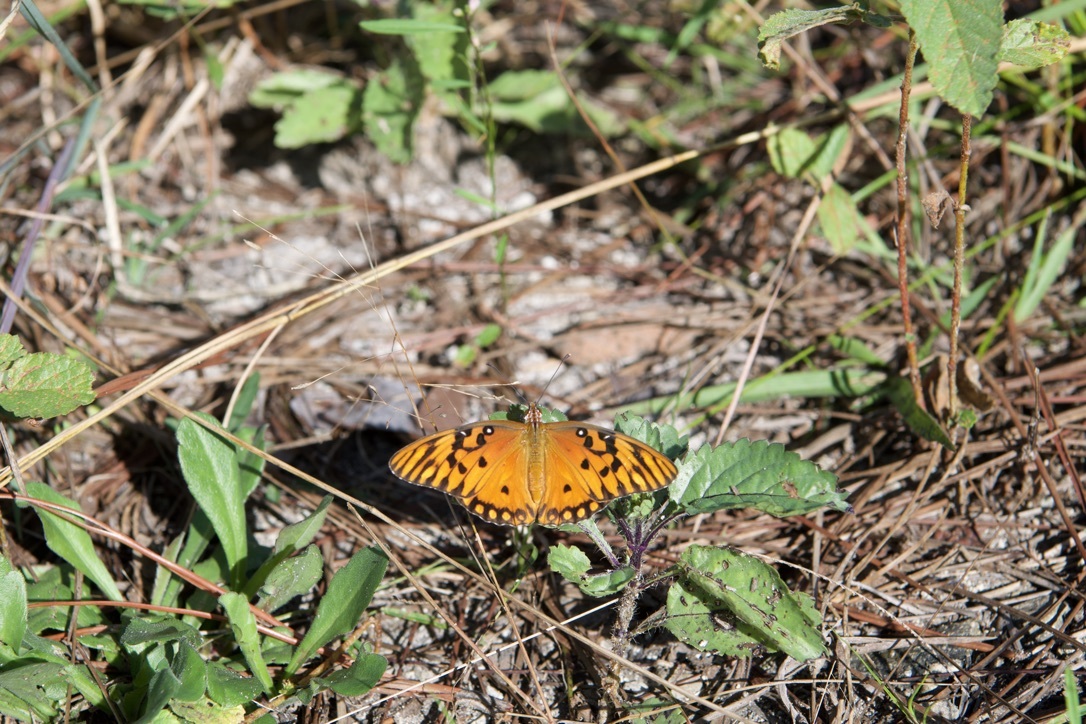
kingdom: Animalia
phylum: Arthropoda
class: Insecta
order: Lepidoptera
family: Nymphalidae
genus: Dione
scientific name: Dione vanillae
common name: Gulf fritillary
